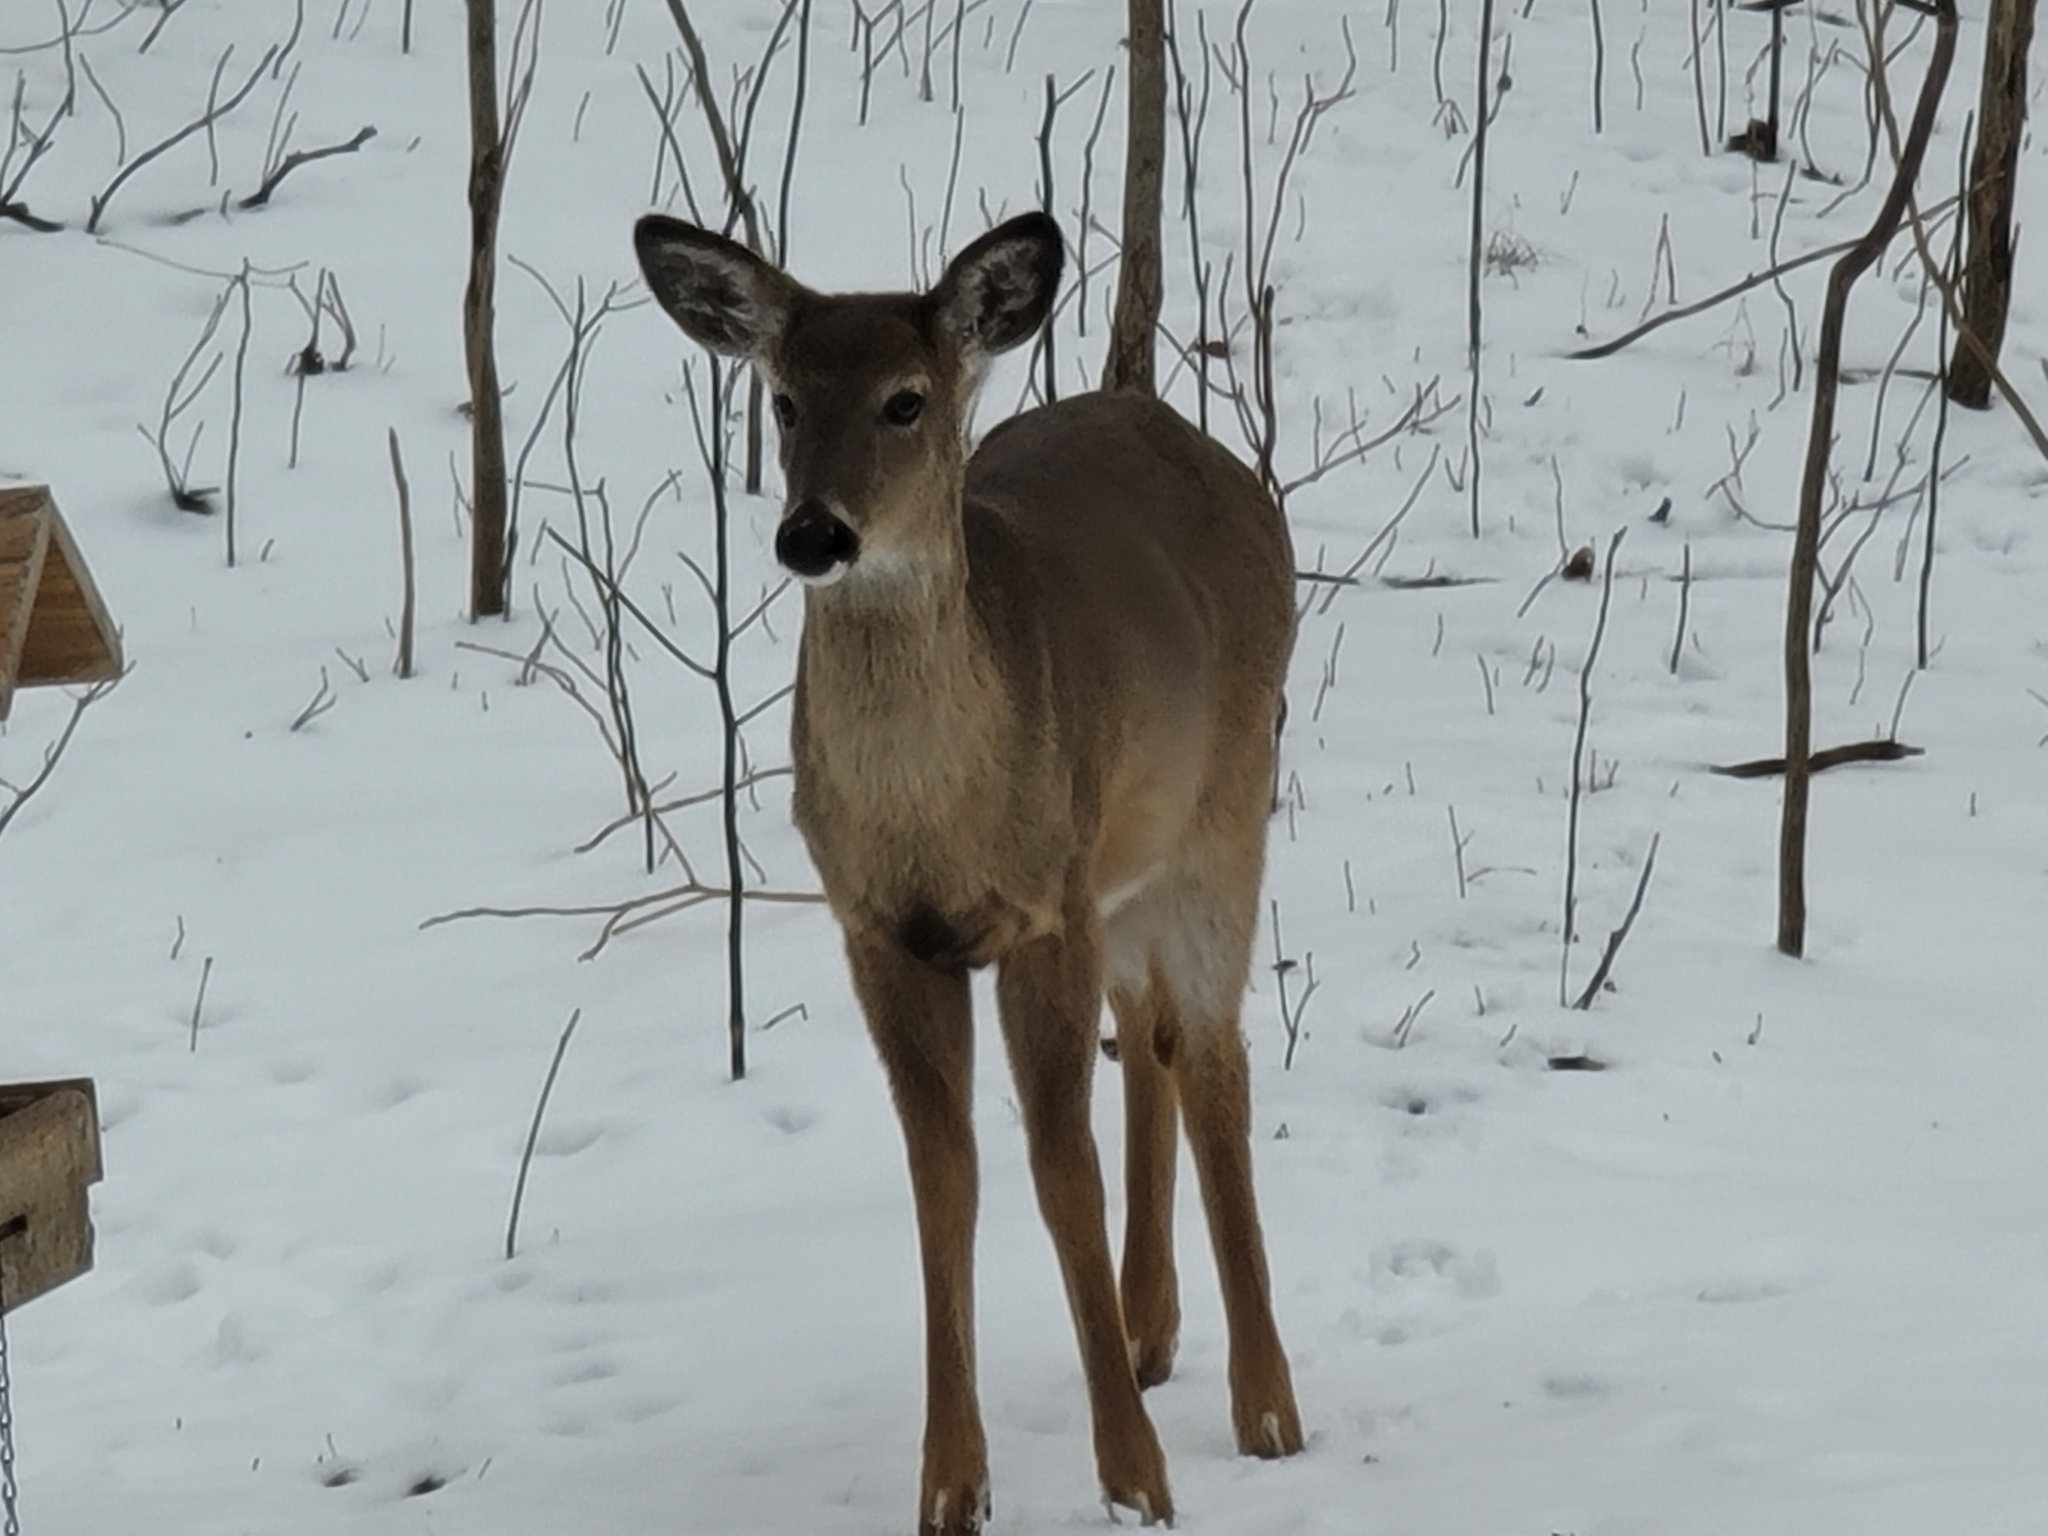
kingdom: Animalia
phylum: Chordata
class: Mammalia
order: Artiodactyla
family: Cervidae
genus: Odocoileus
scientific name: Odocoileus virginianus
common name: White-tailed deer
